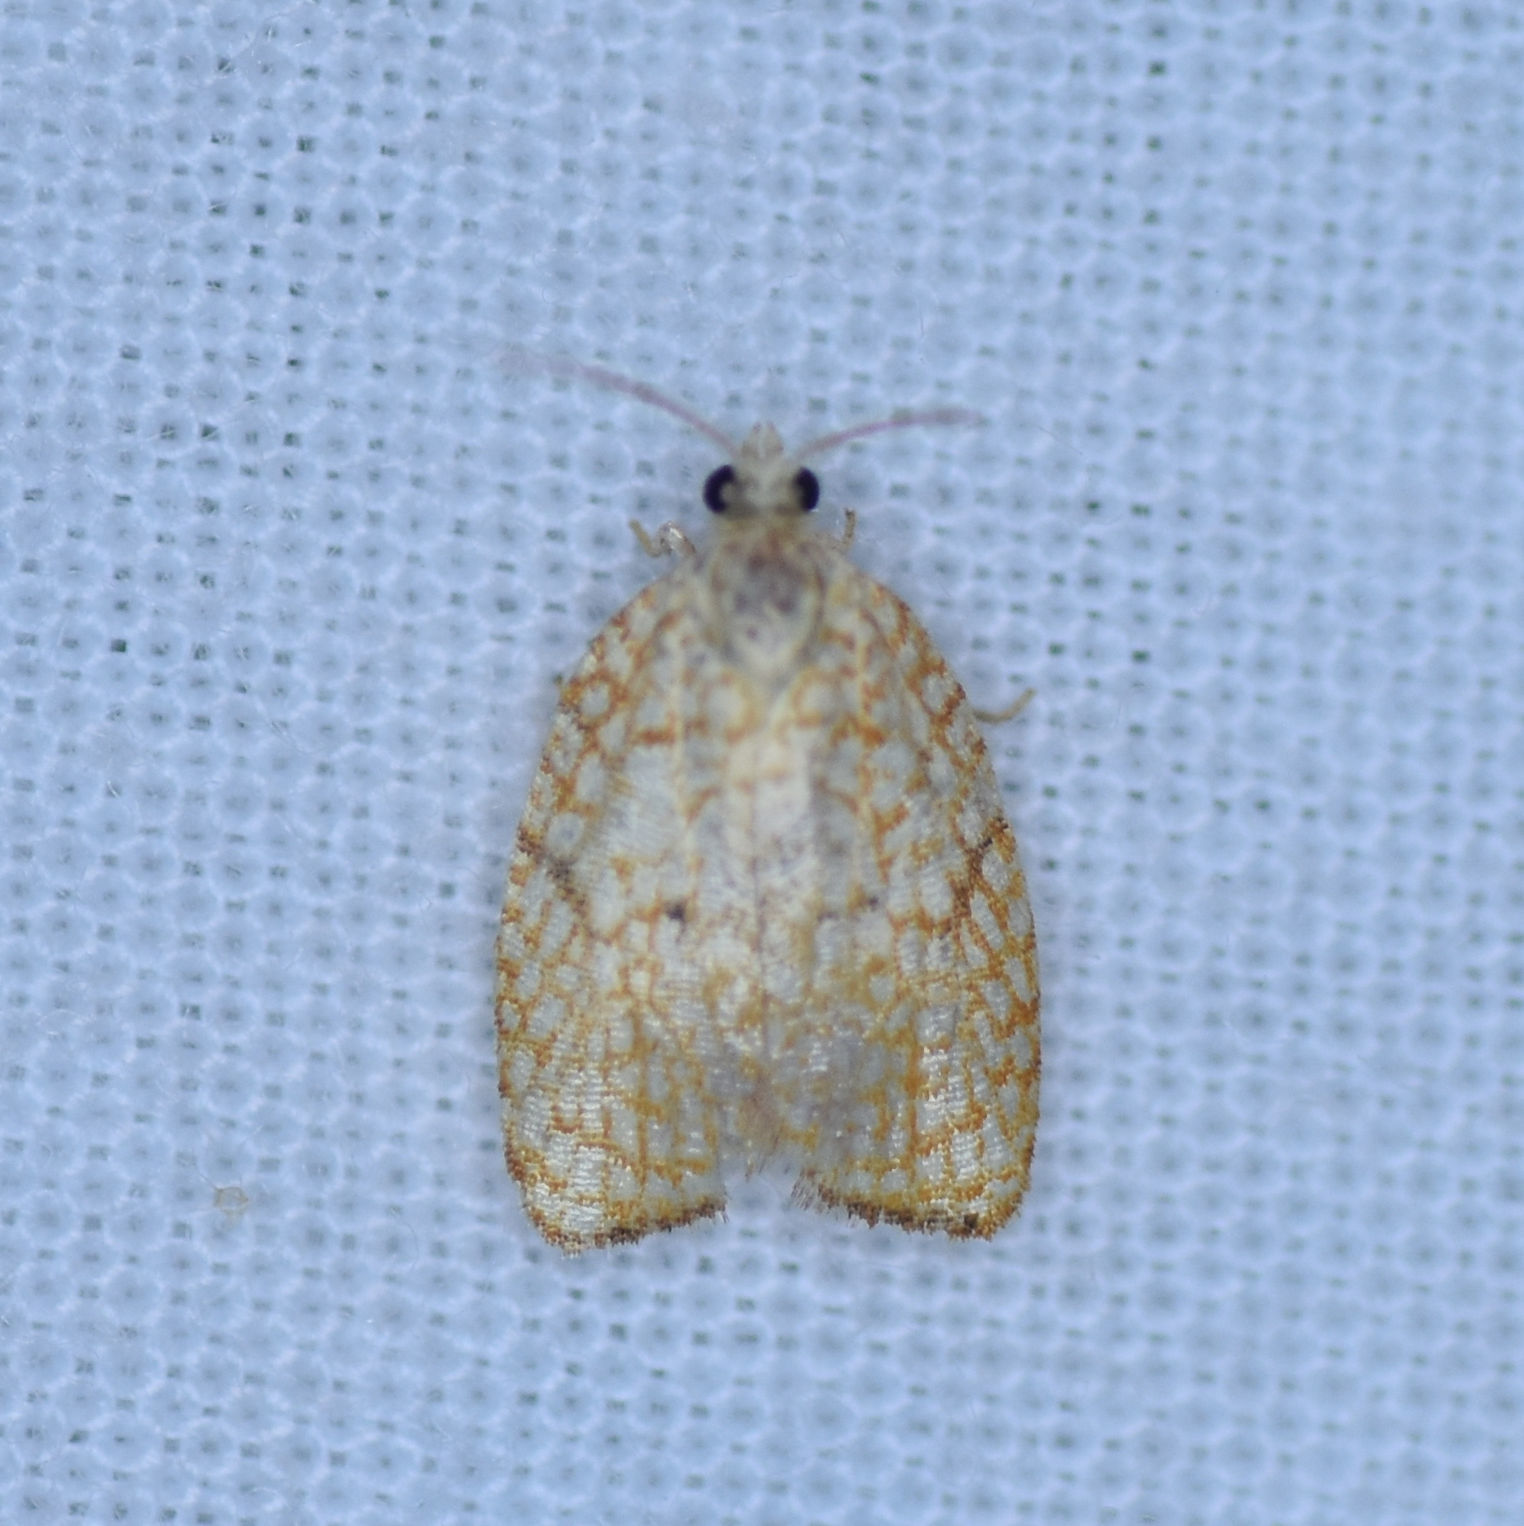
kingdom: Animalia
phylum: Arthropoda
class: Insecta
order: Lepidoptera
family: Tortricidae
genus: Acleris
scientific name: Acleris forsskaleana
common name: Maple button
